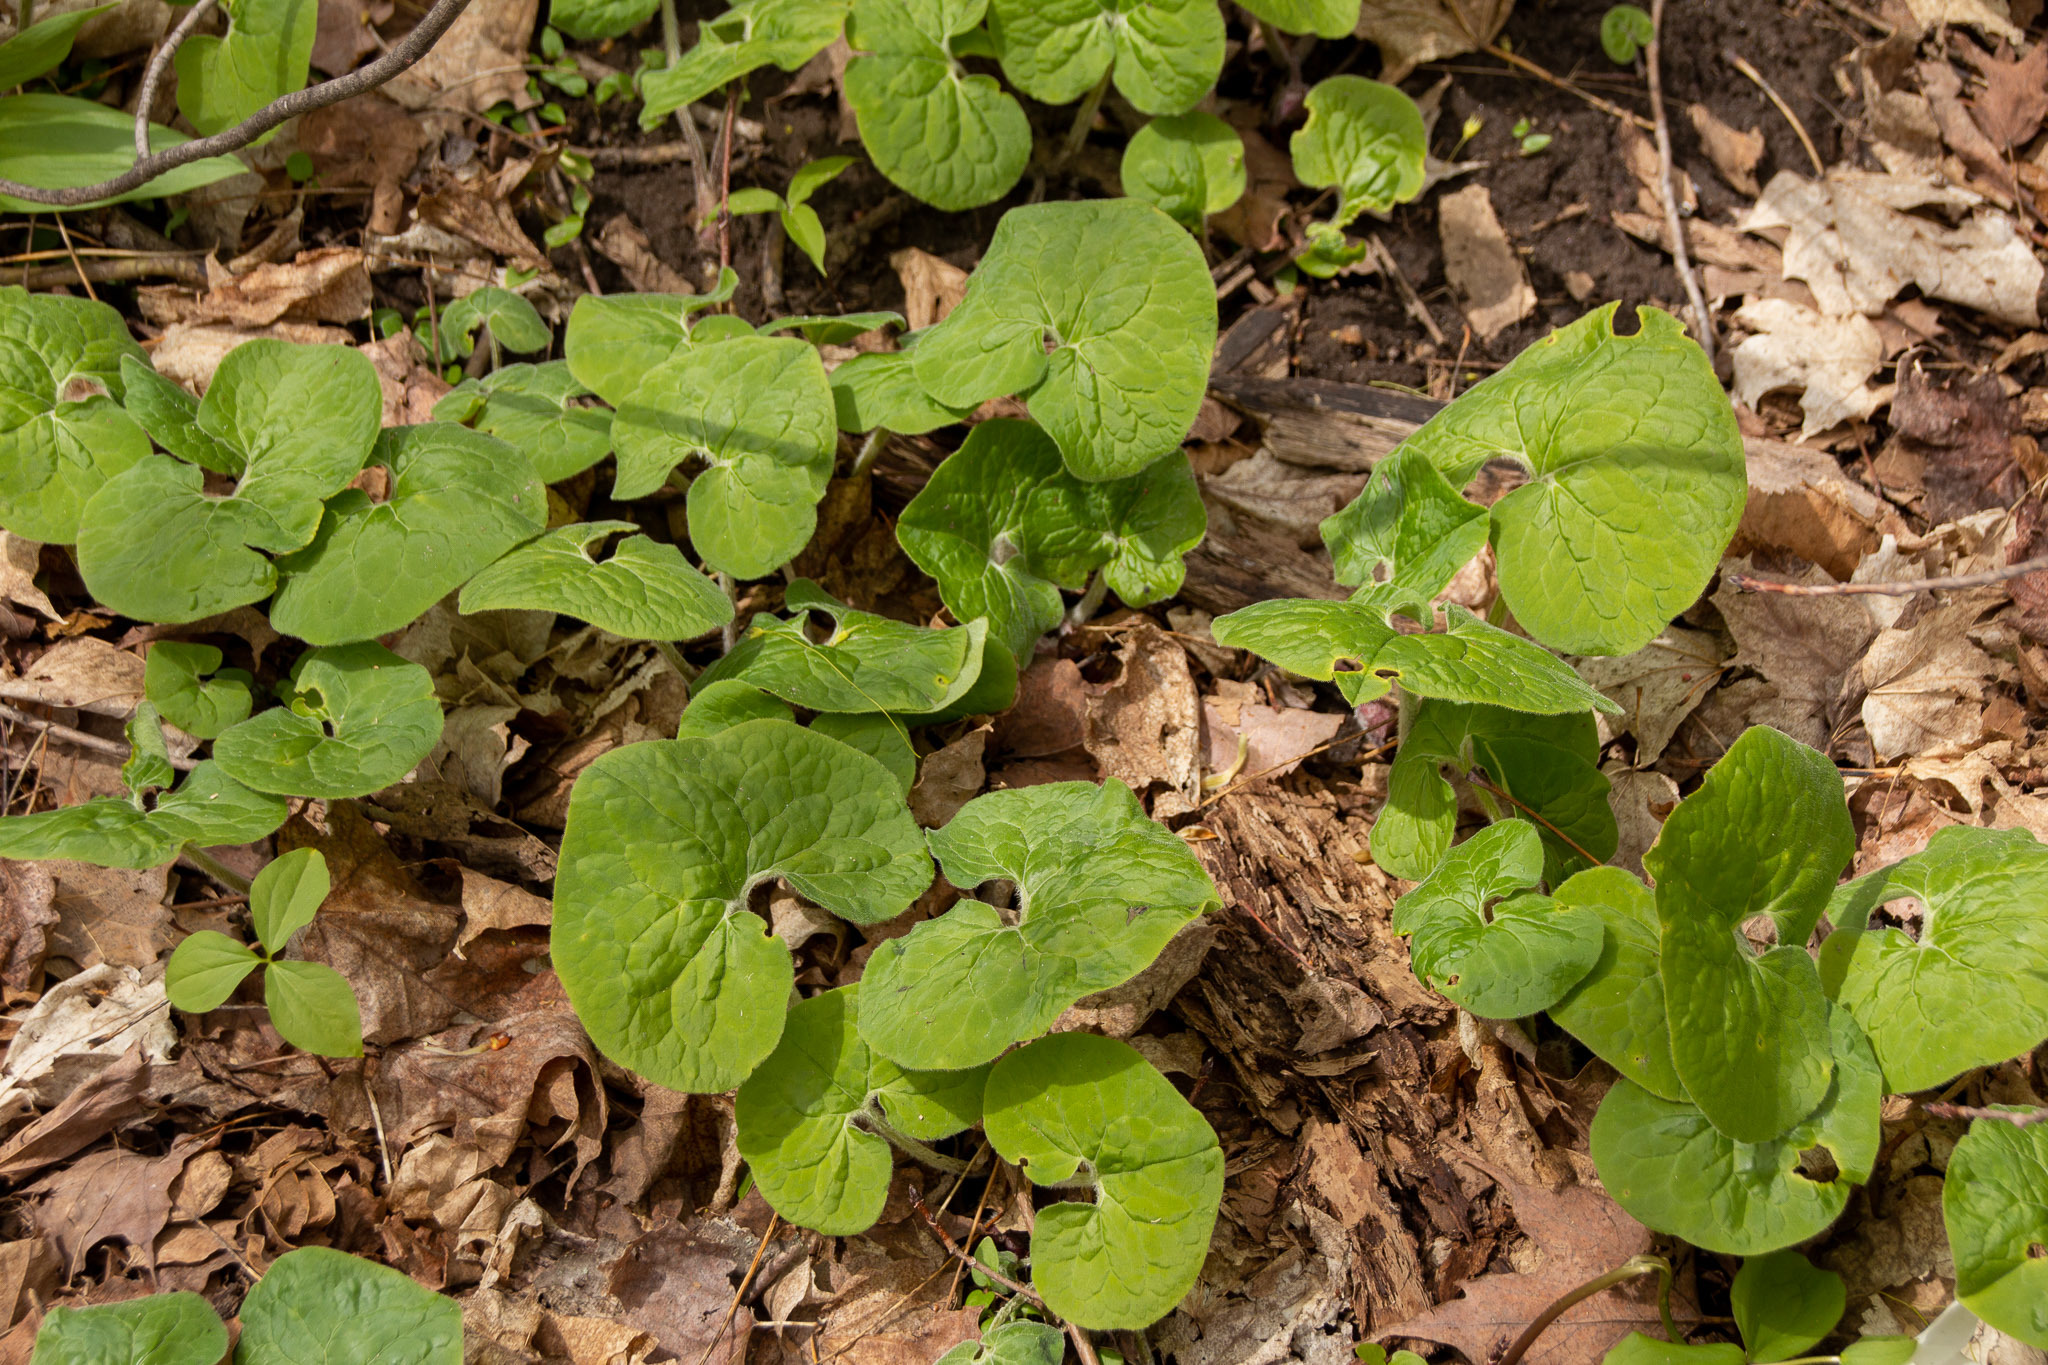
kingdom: Plantae
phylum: Tracheophyta
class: Magnoliopsida
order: Piperales
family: Aristolochiaceae
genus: Asarum
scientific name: Asarum canadense
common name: Wild ginger
